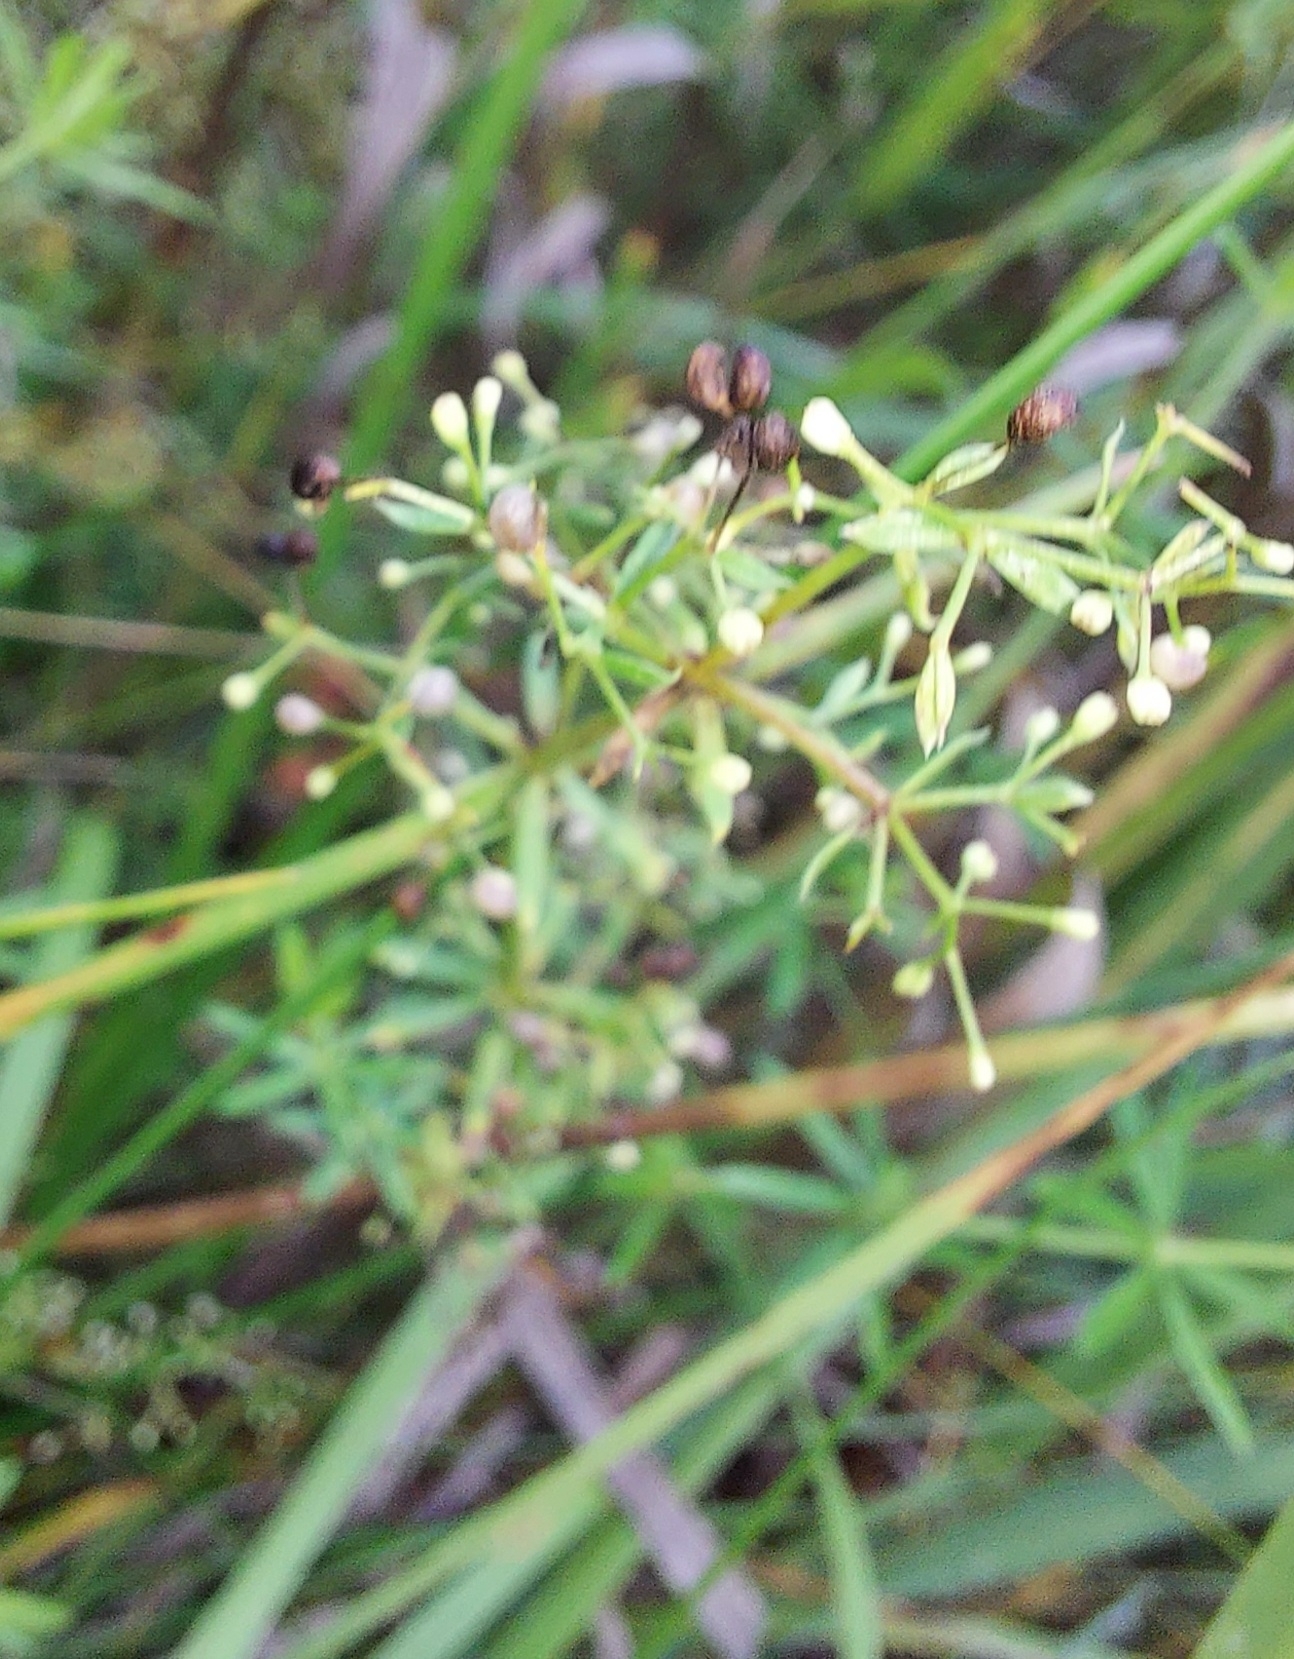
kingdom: Plantae
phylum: Tracheophyta
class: Magnoliopsida
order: Gentianales
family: Rubiaceae
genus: Galium
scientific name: Galium trifidum
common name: Small bedstraw
